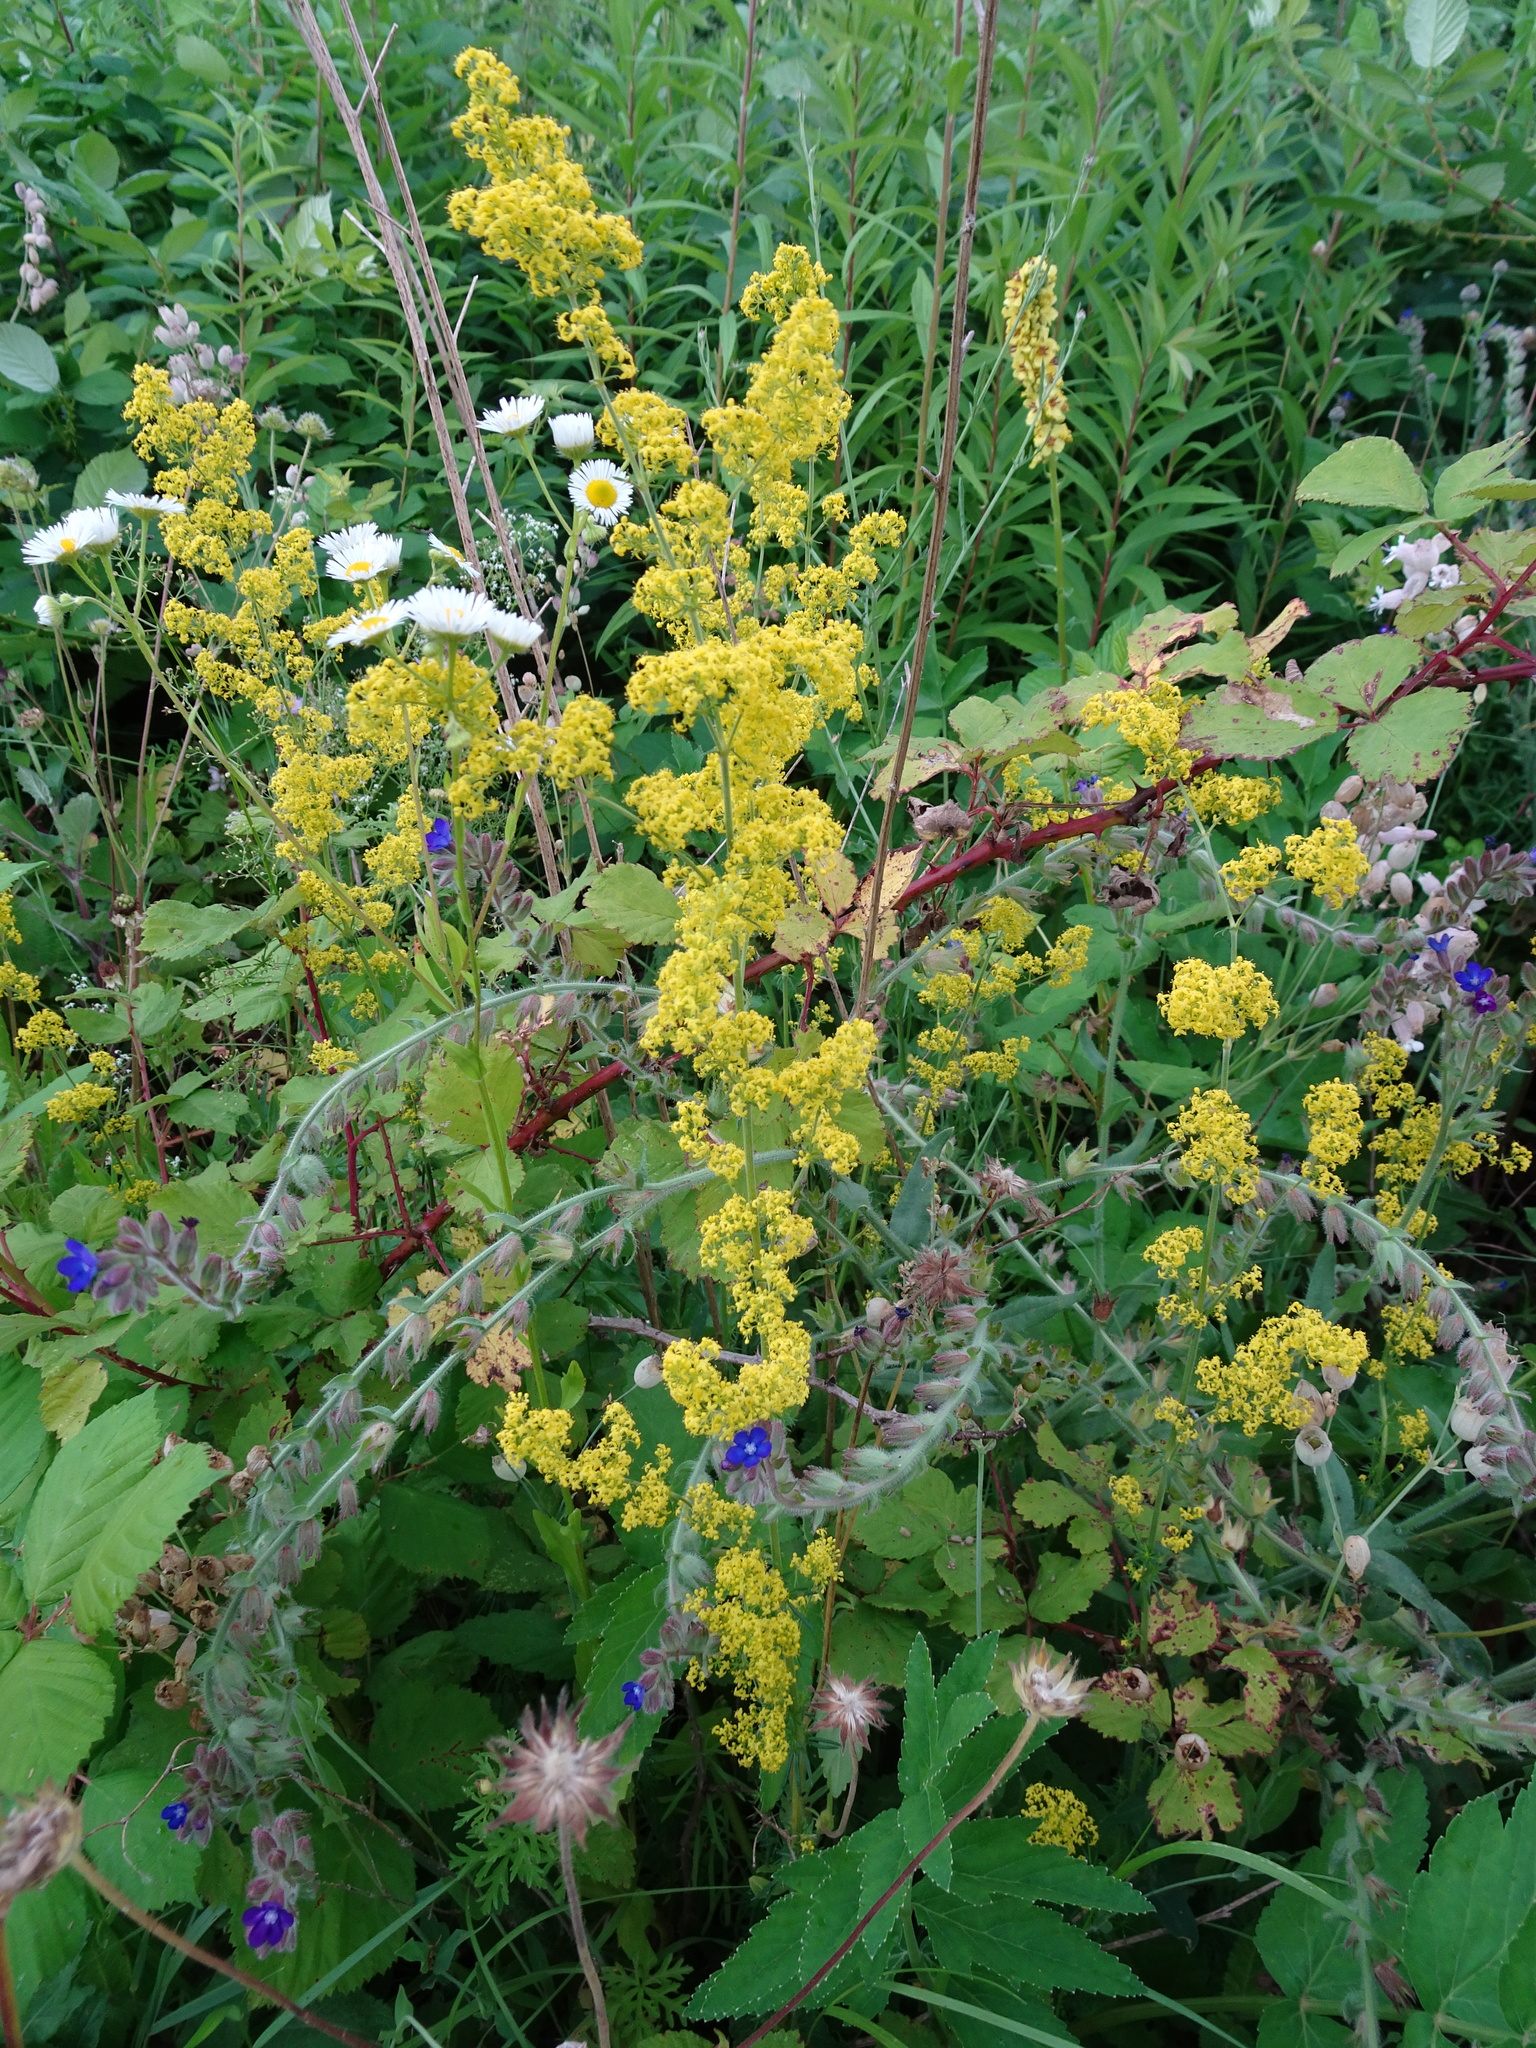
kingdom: Plantae
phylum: Tracheophyta
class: Magnoliopsida
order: Gentianales
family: Rubiaceae
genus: Galium
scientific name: Galium verum
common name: Lady's bedstraw
